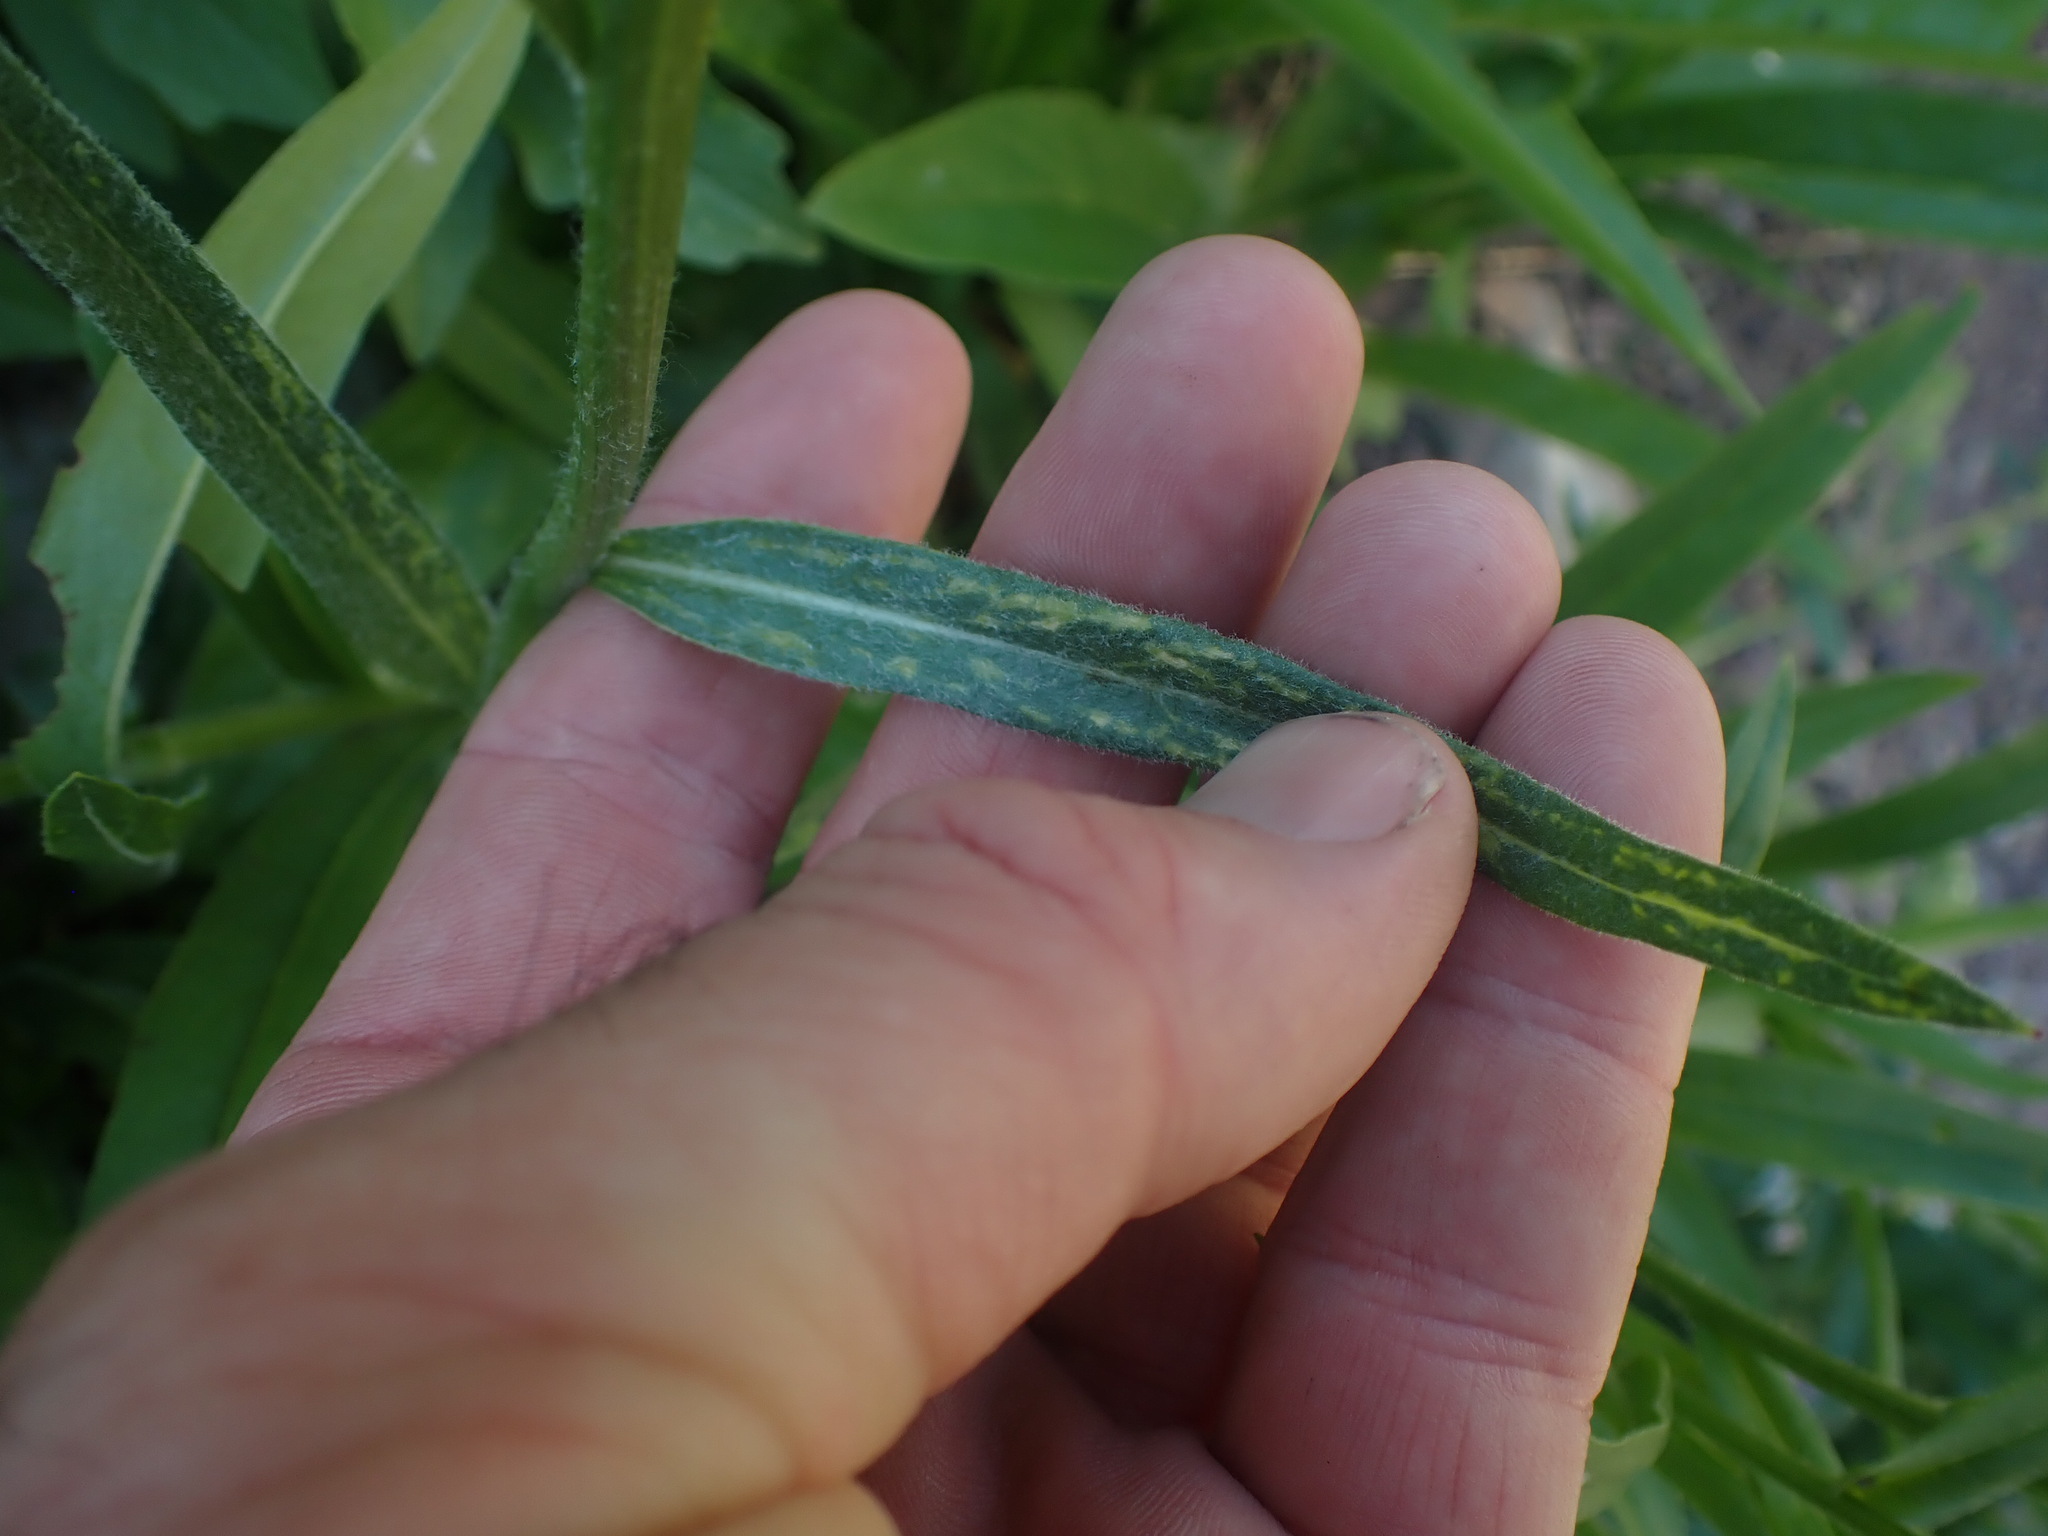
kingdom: Plantae
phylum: Tracheophyta
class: Magnoliopsida
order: Asterales
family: Asteraceae
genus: Senecio
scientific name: Senecio megacephalus
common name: Large-flowered ragwort
